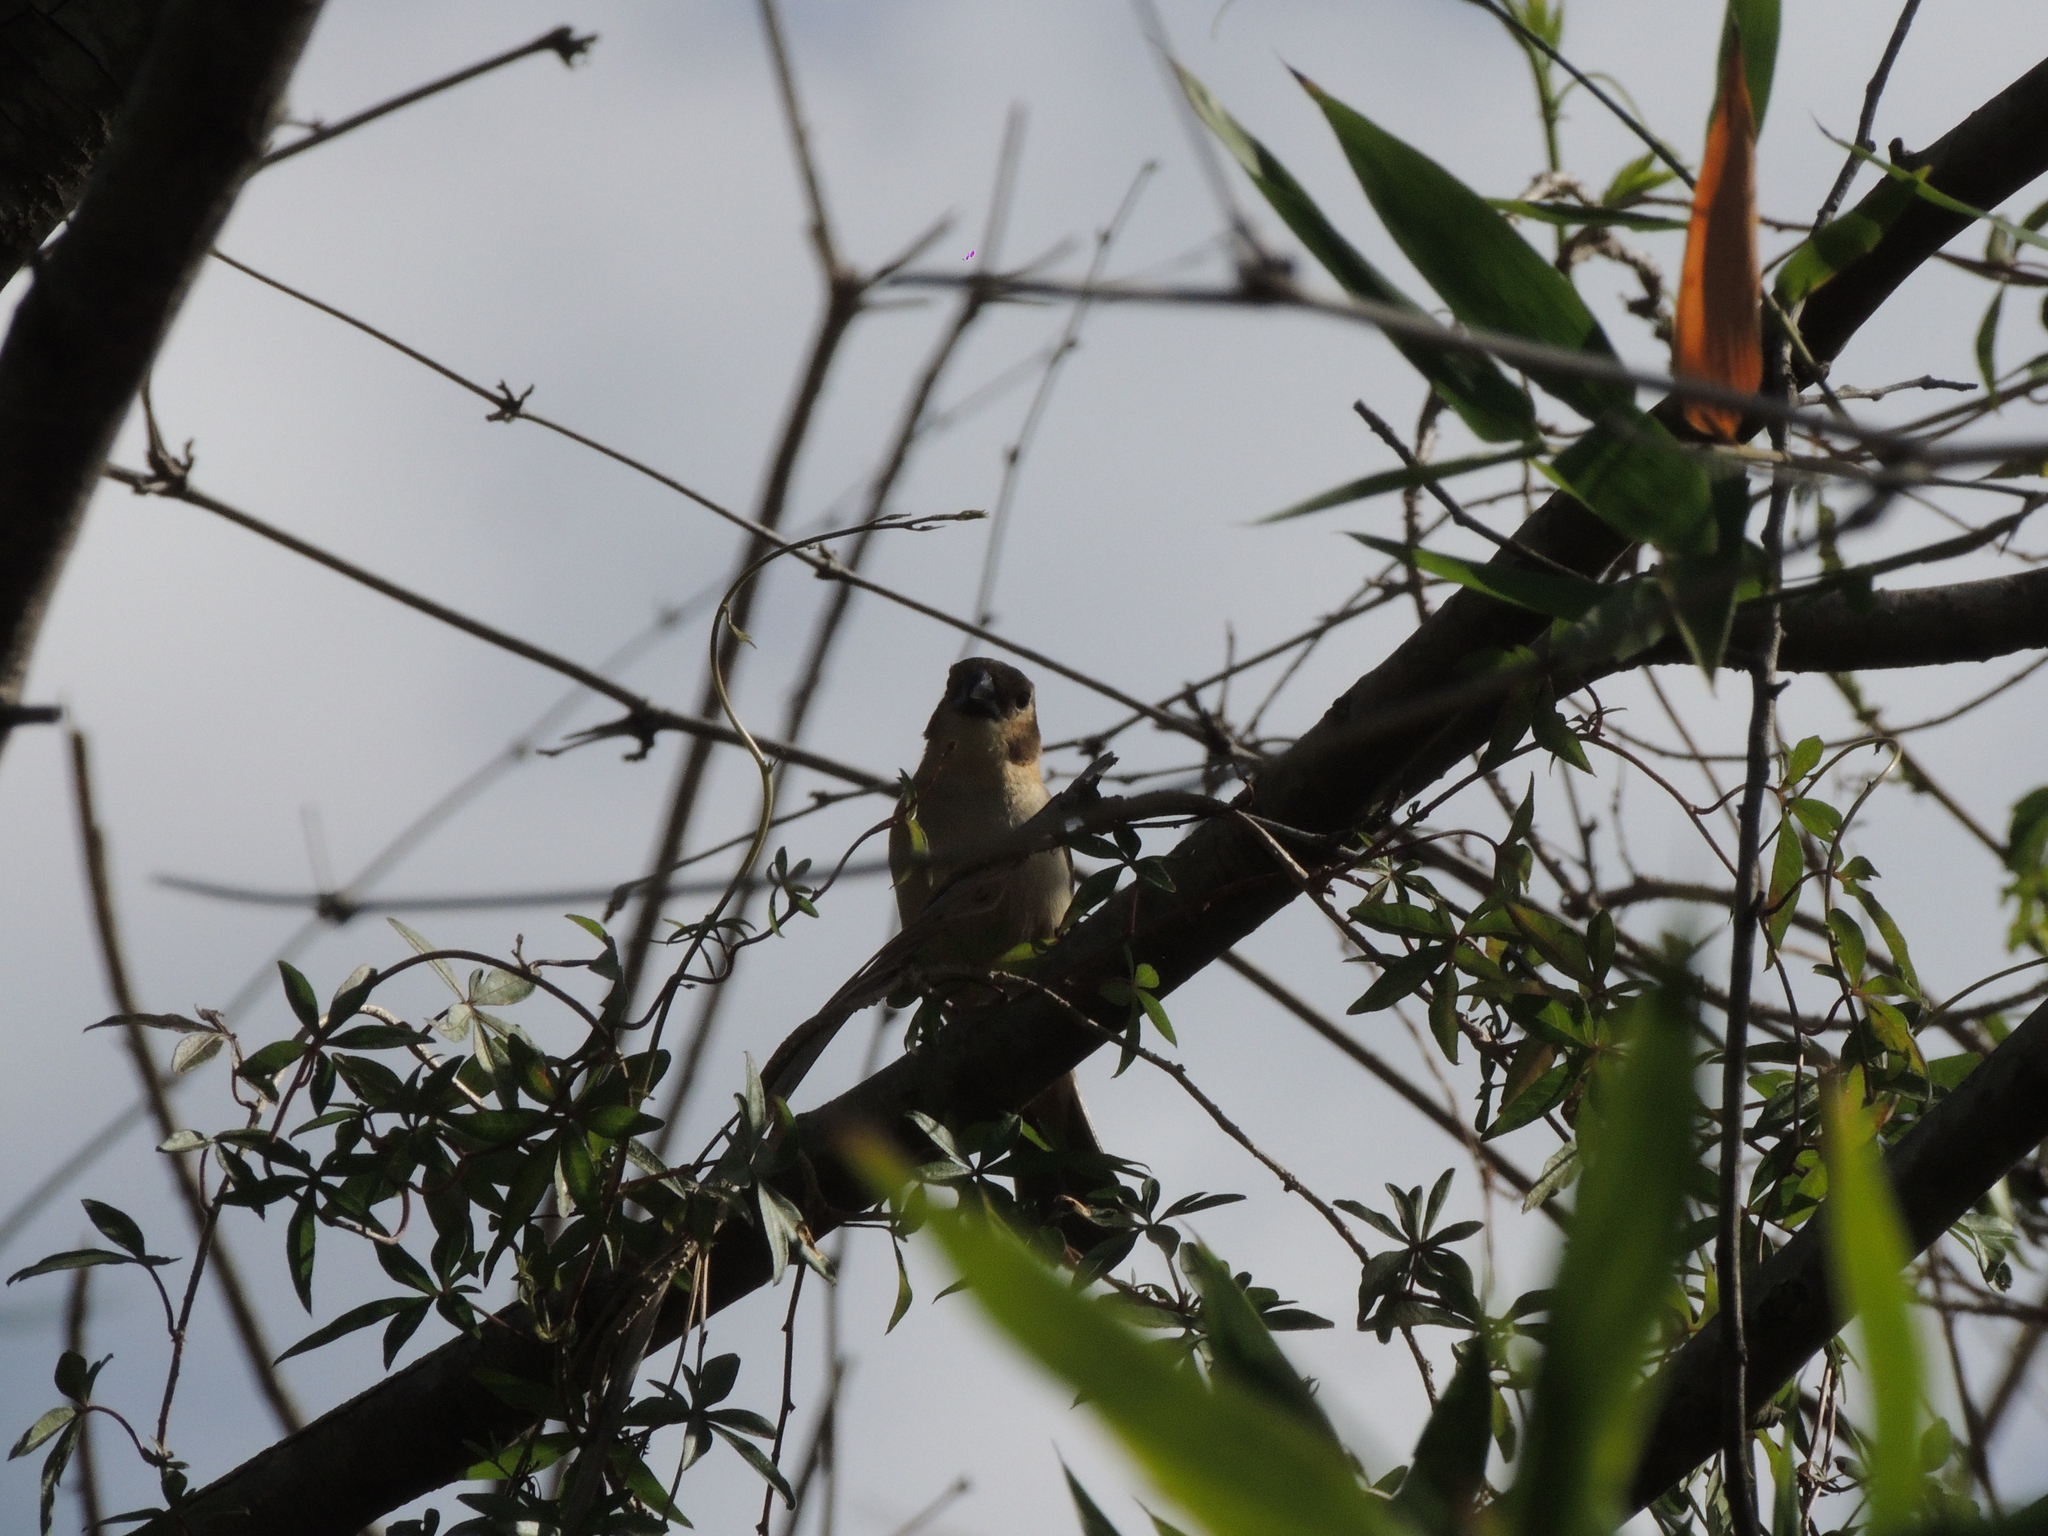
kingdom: Animalia
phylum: Chordata
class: Aves
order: Passeriformes
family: Thraupidae
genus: Sporophila
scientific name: Sporophila collaris
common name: Rusty-collared seedeater
